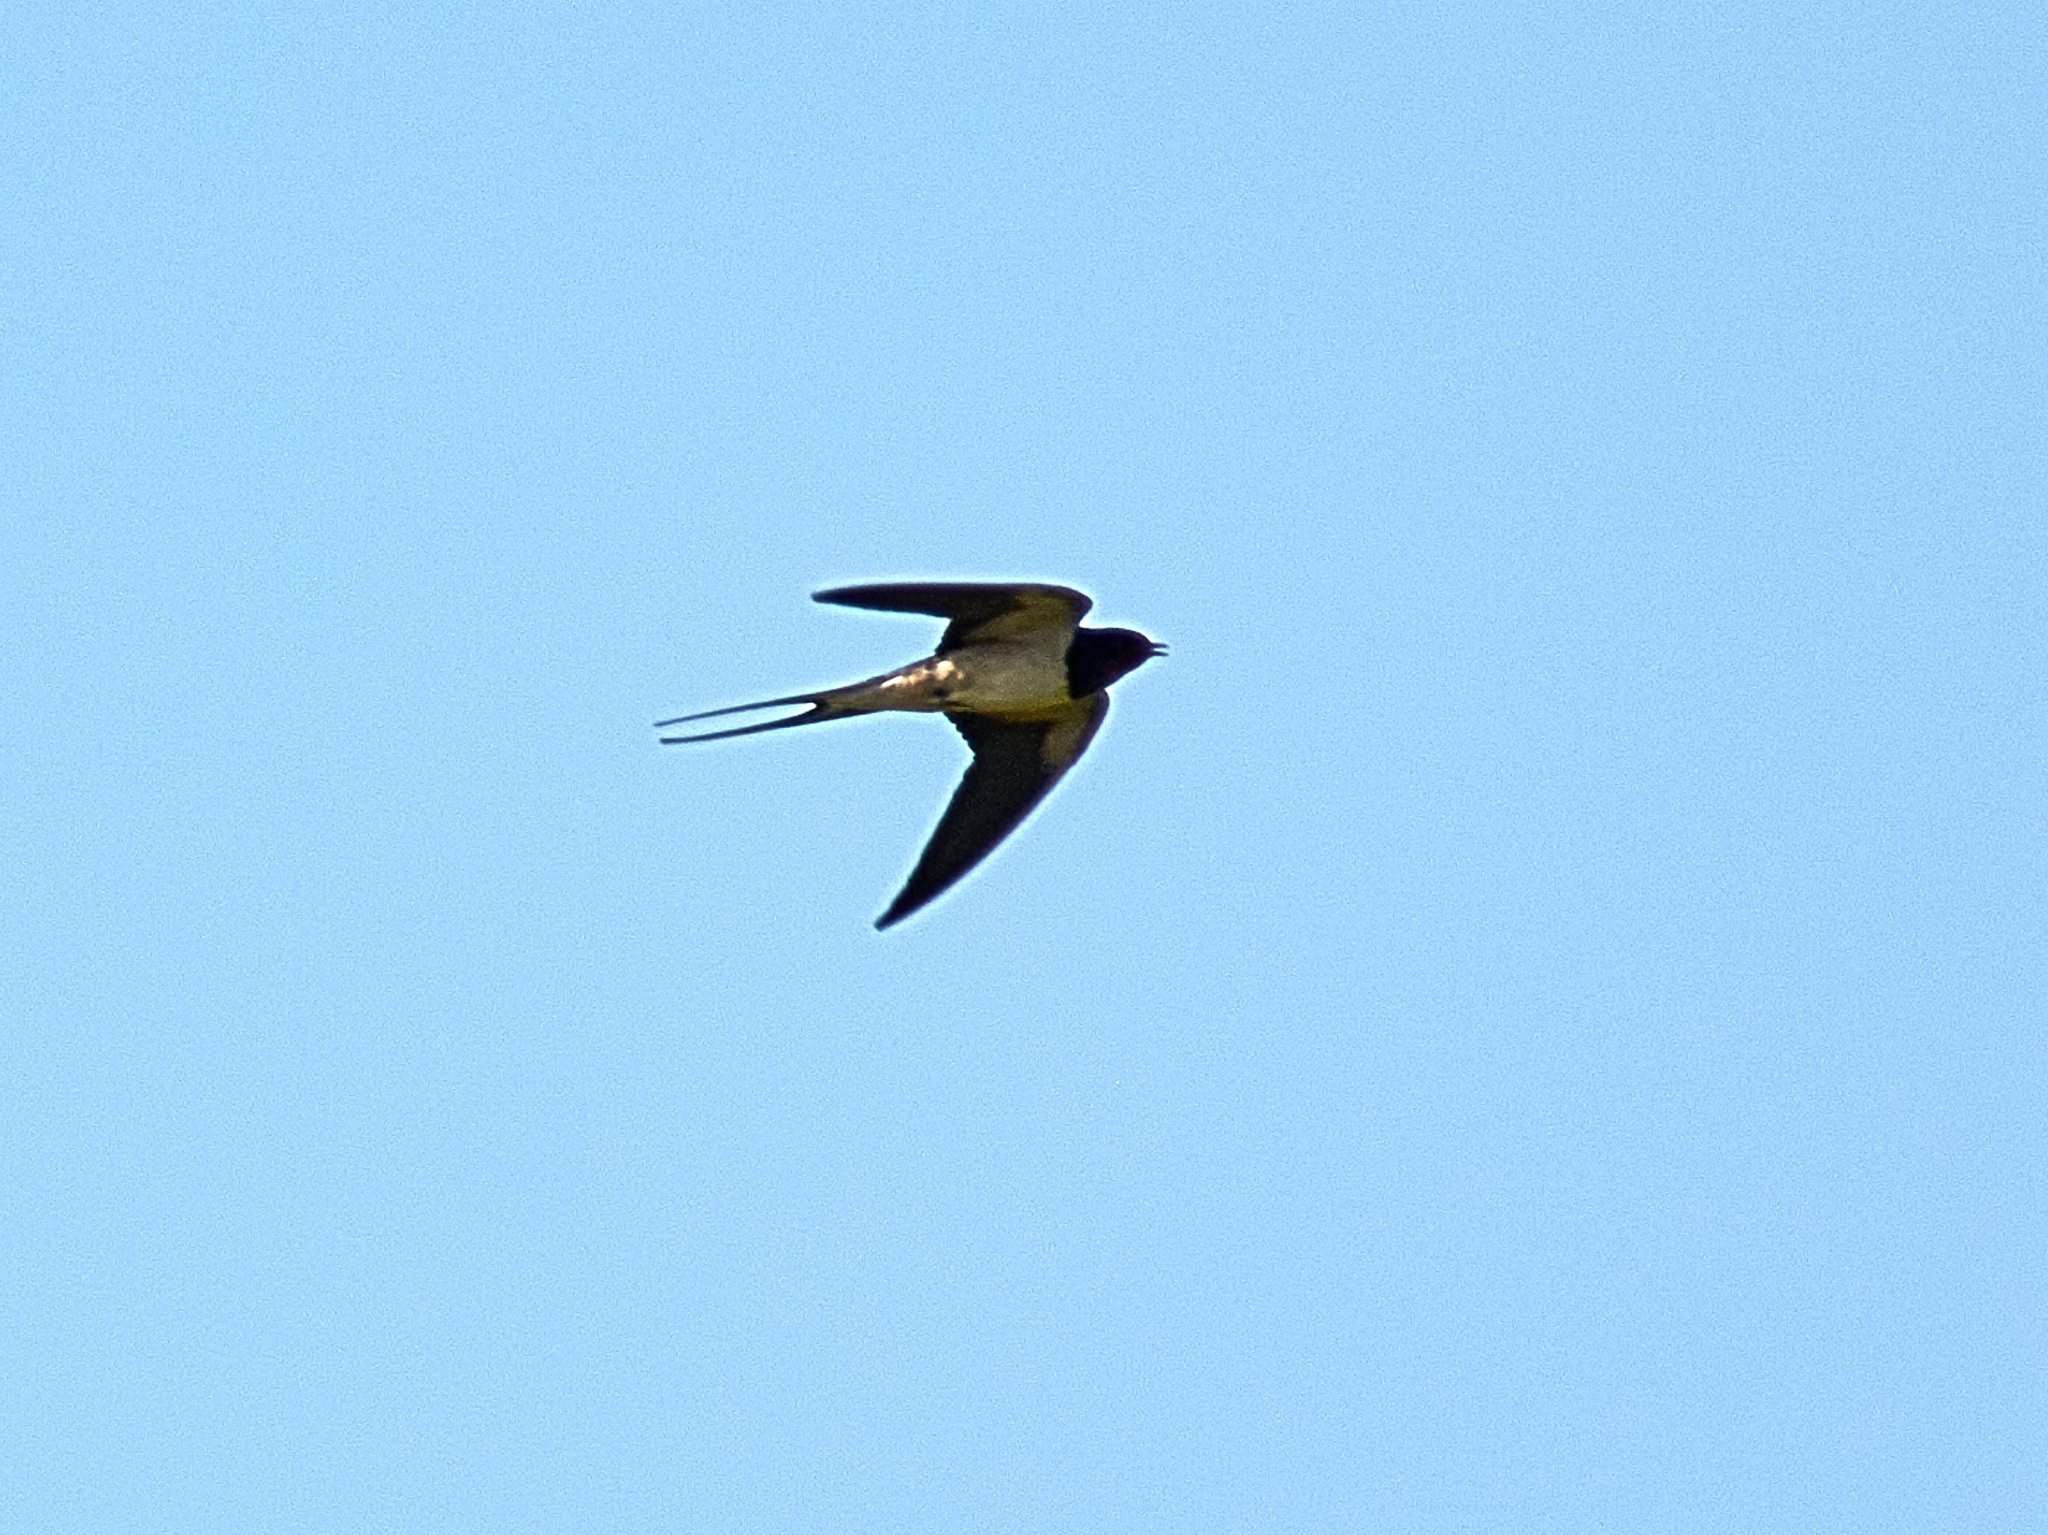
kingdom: Animalia
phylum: Chordata
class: Aves
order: Passeriformes
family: Hirundinidae
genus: Hirundo
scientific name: Hirundo rustica
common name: Barn swallow
